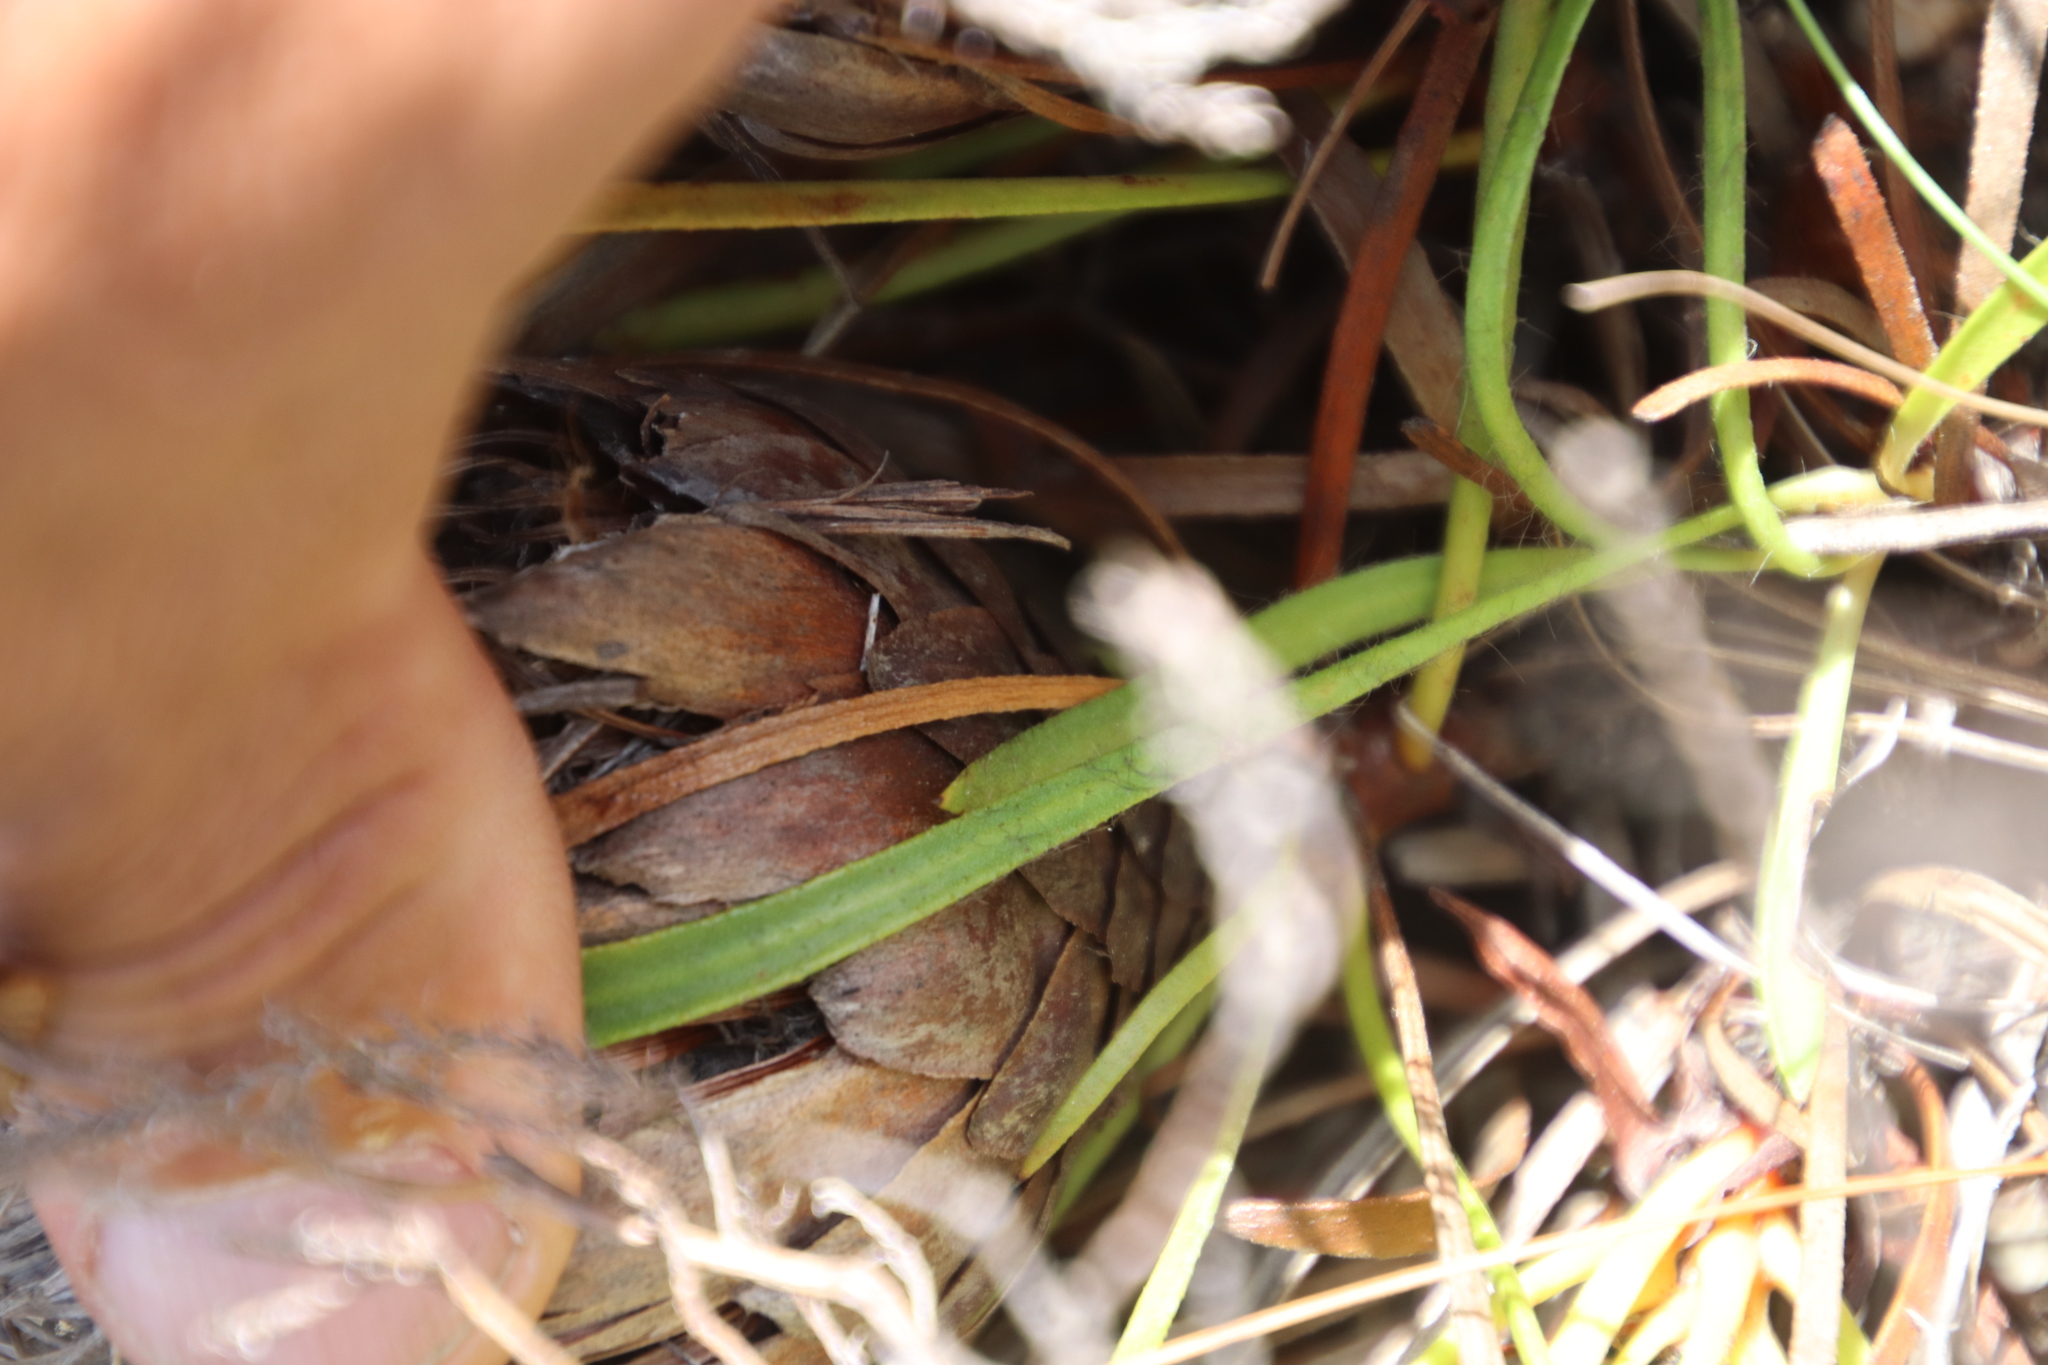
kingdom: Plantae
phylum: Tracheophyta
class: Magnoliopsida
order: Proteales
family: Proteaceae
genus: Protea
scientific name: Protea aspera
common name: Rough-leaf sugarbush
